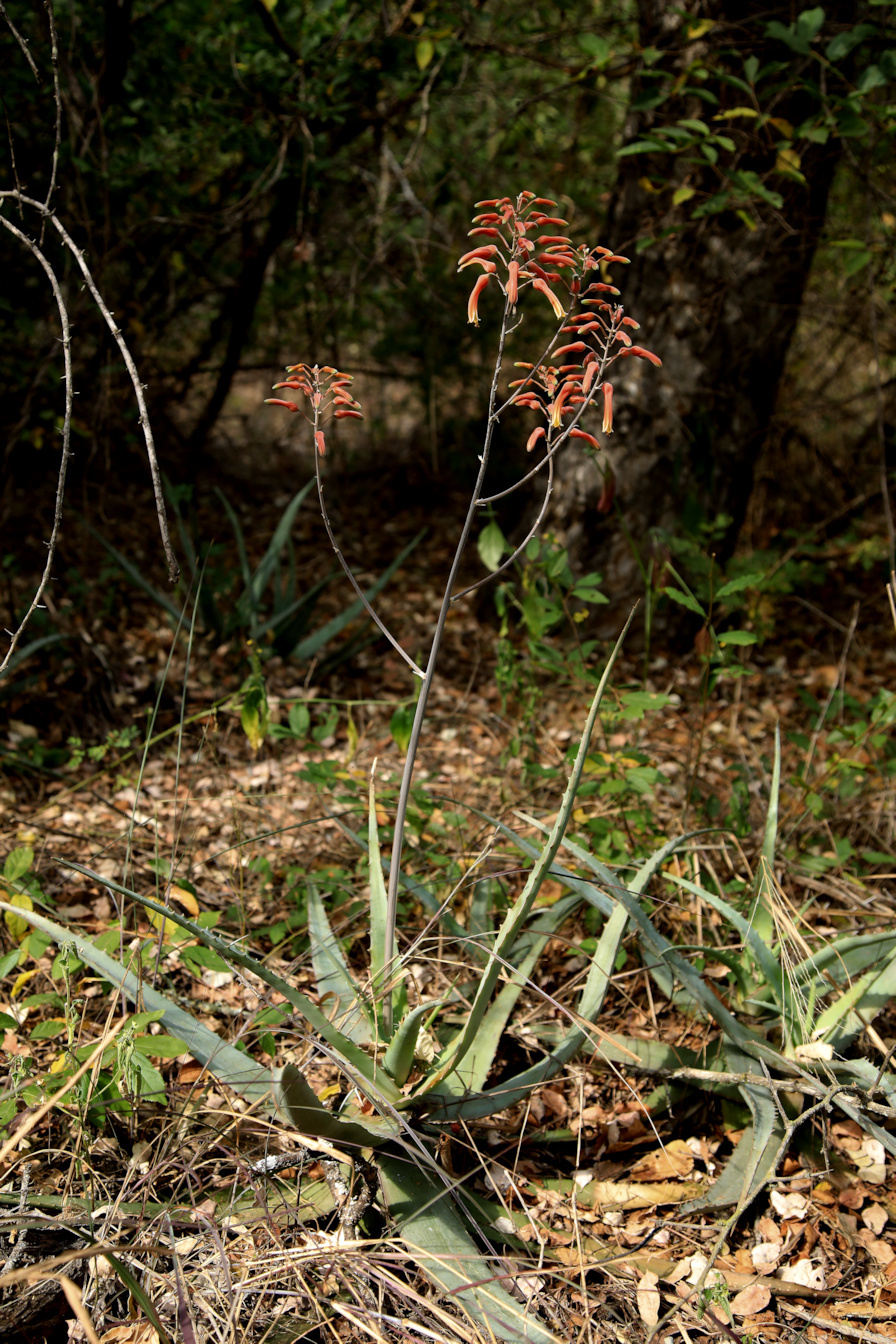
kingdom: Plantae
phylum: Tracheophyta
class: Liliopsida
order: Asparagales
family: Asphodelaceae
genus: Aloe
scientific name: Aloe chabaudii
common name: Chabaud's aloe
